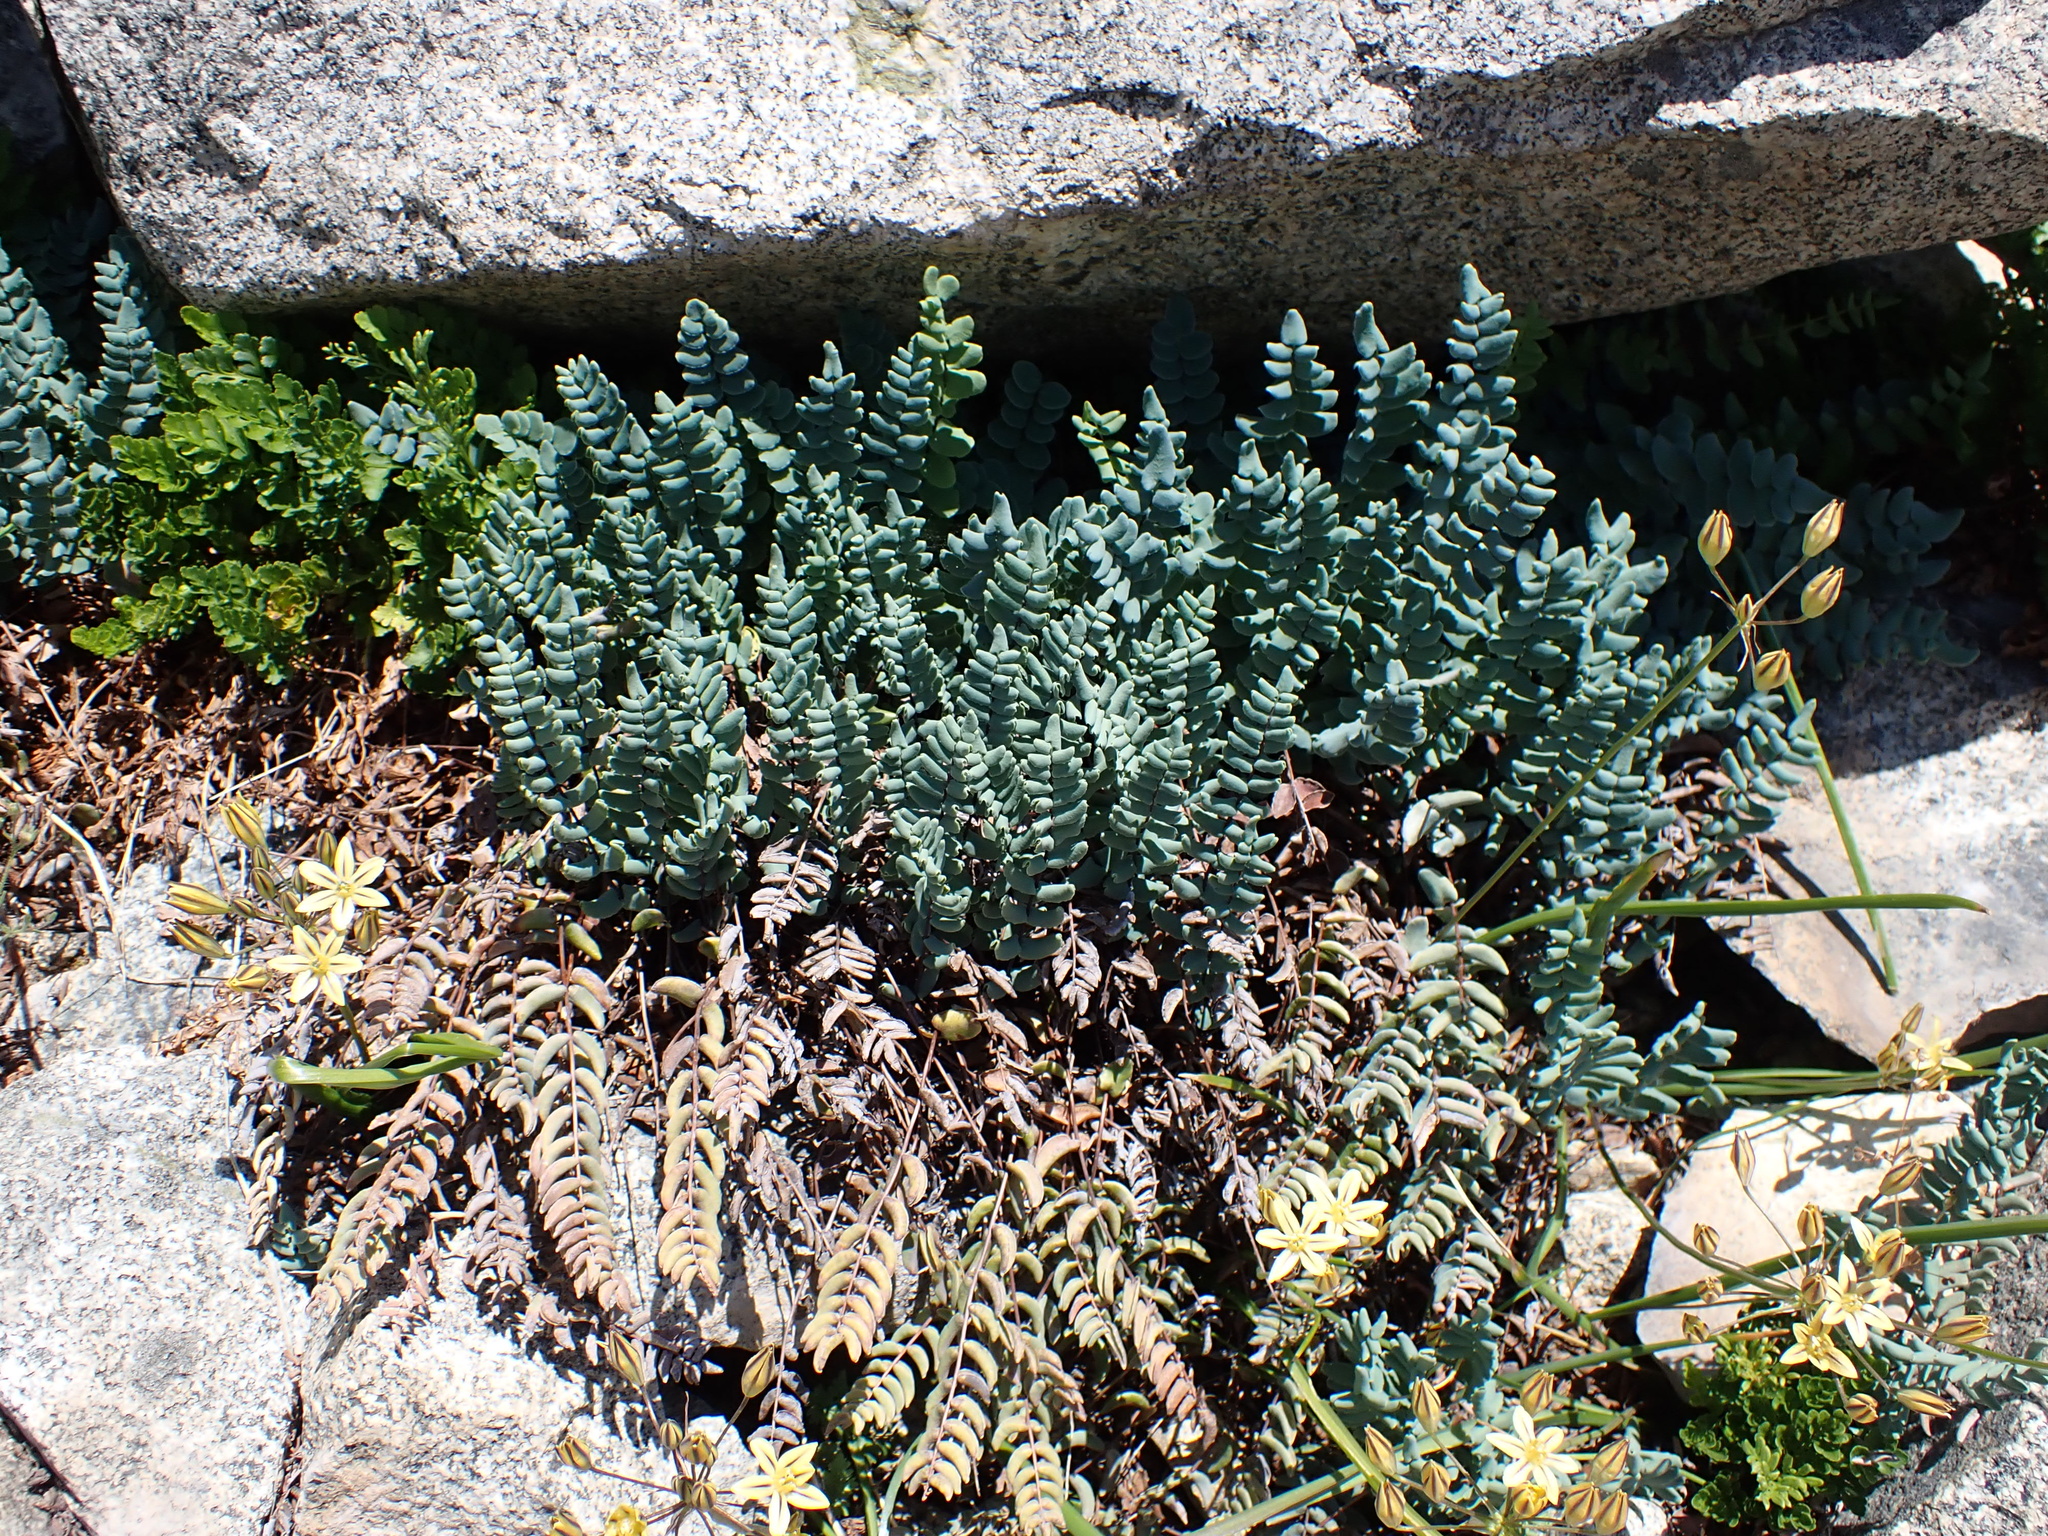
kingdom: Plantae
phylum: Tracheophyta
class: Polypodiopsida
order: Polypodiales
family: Pteridaceae
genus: Pellaea
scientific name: Pellaea bridgesii
